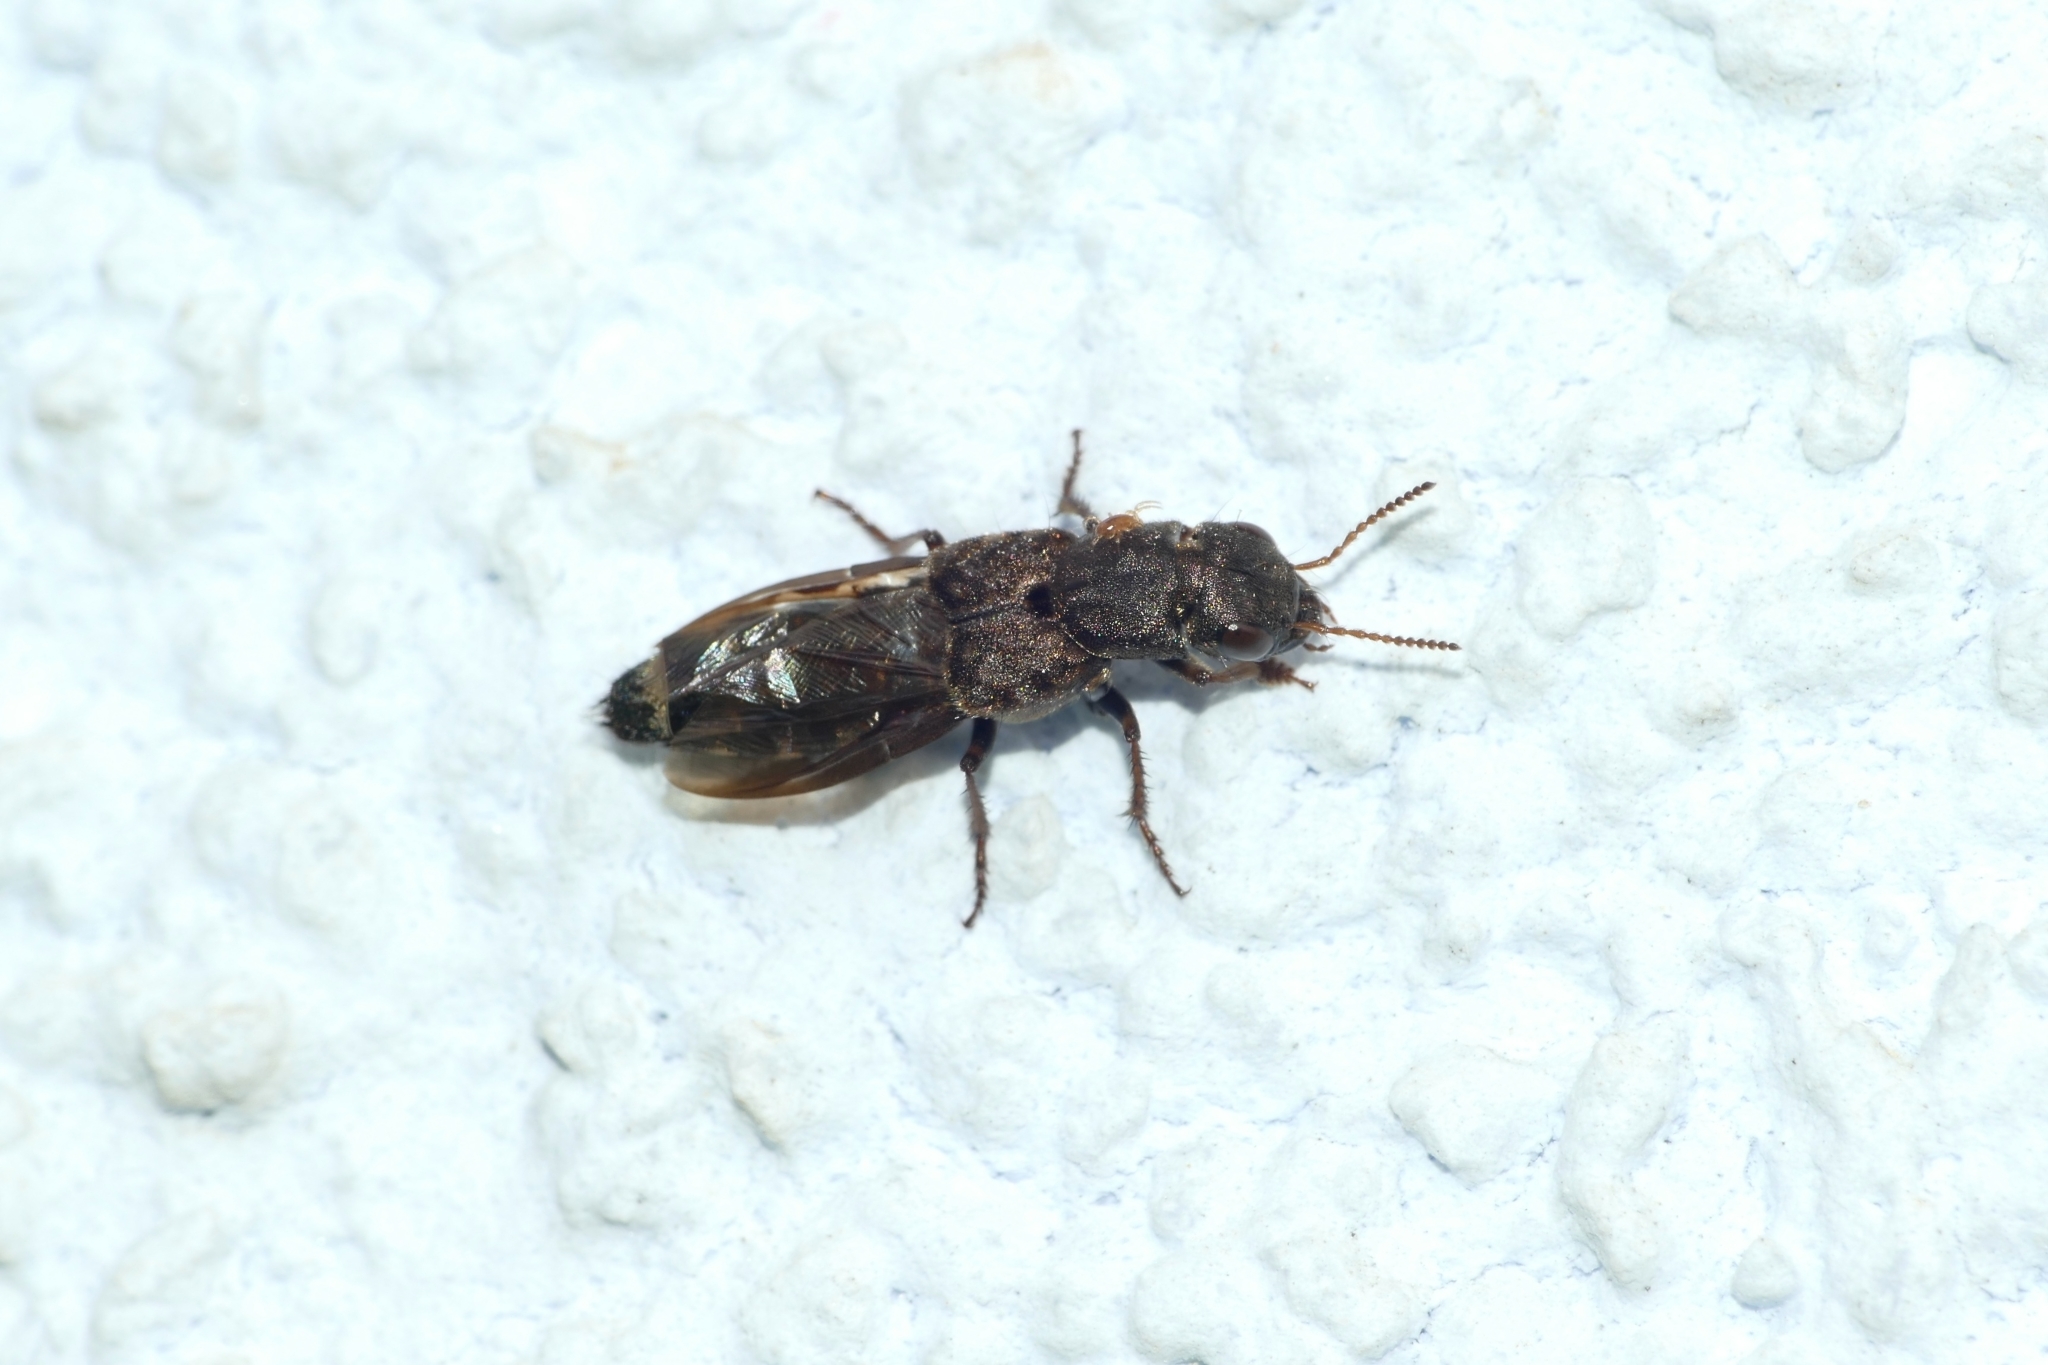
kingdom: Animalia
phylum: Arthropoda
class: Insecta
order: Coleoptera
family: Staphylinidae
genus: Ontholestes
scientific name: Ontholestes haroldi
